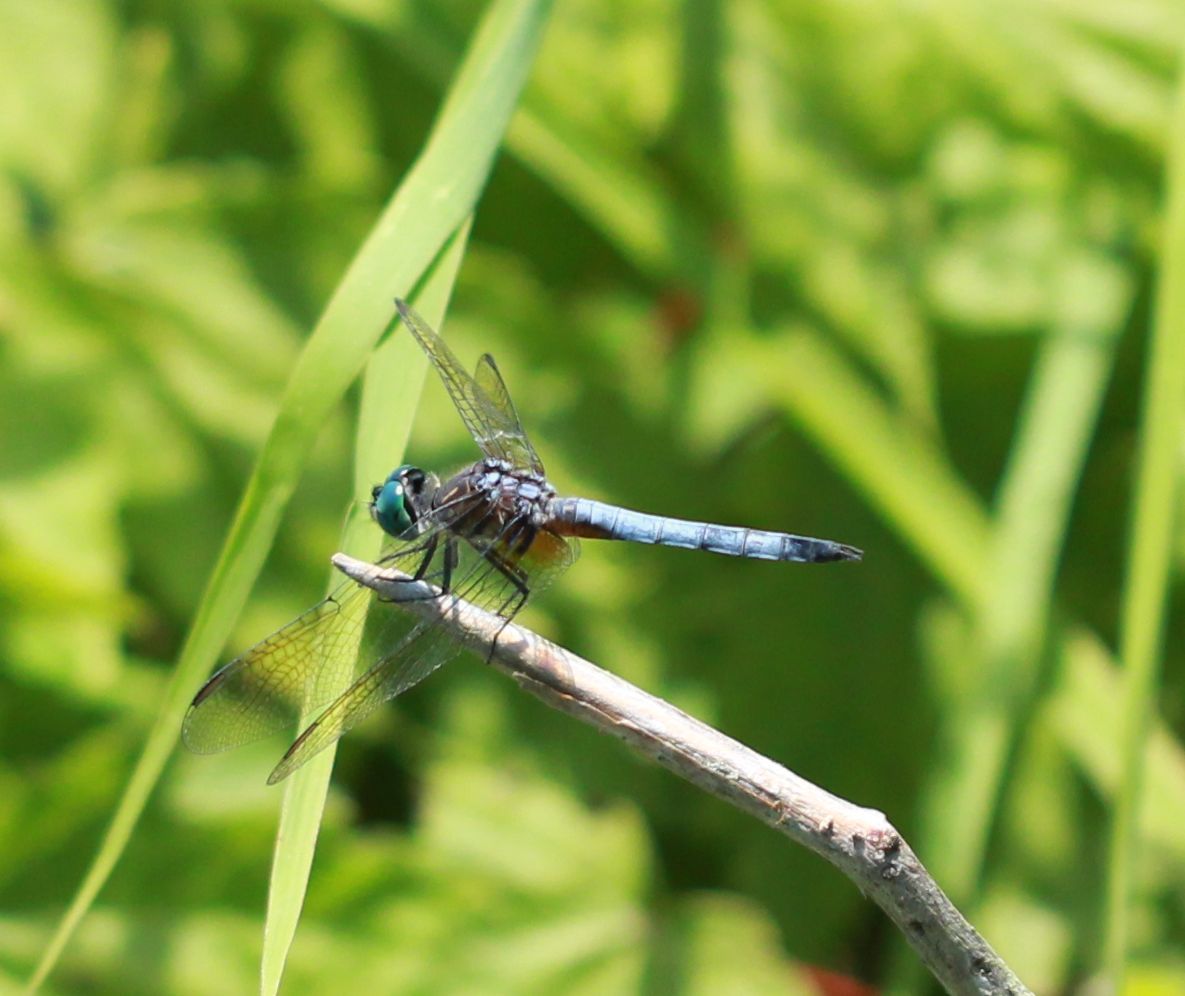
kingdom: Animalia
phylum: Arthropoda
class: Insecta
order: Odonata
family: Libellulidae
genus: Pachydiplax
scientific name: Pachydiplax longipennis
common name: Blue dasher
